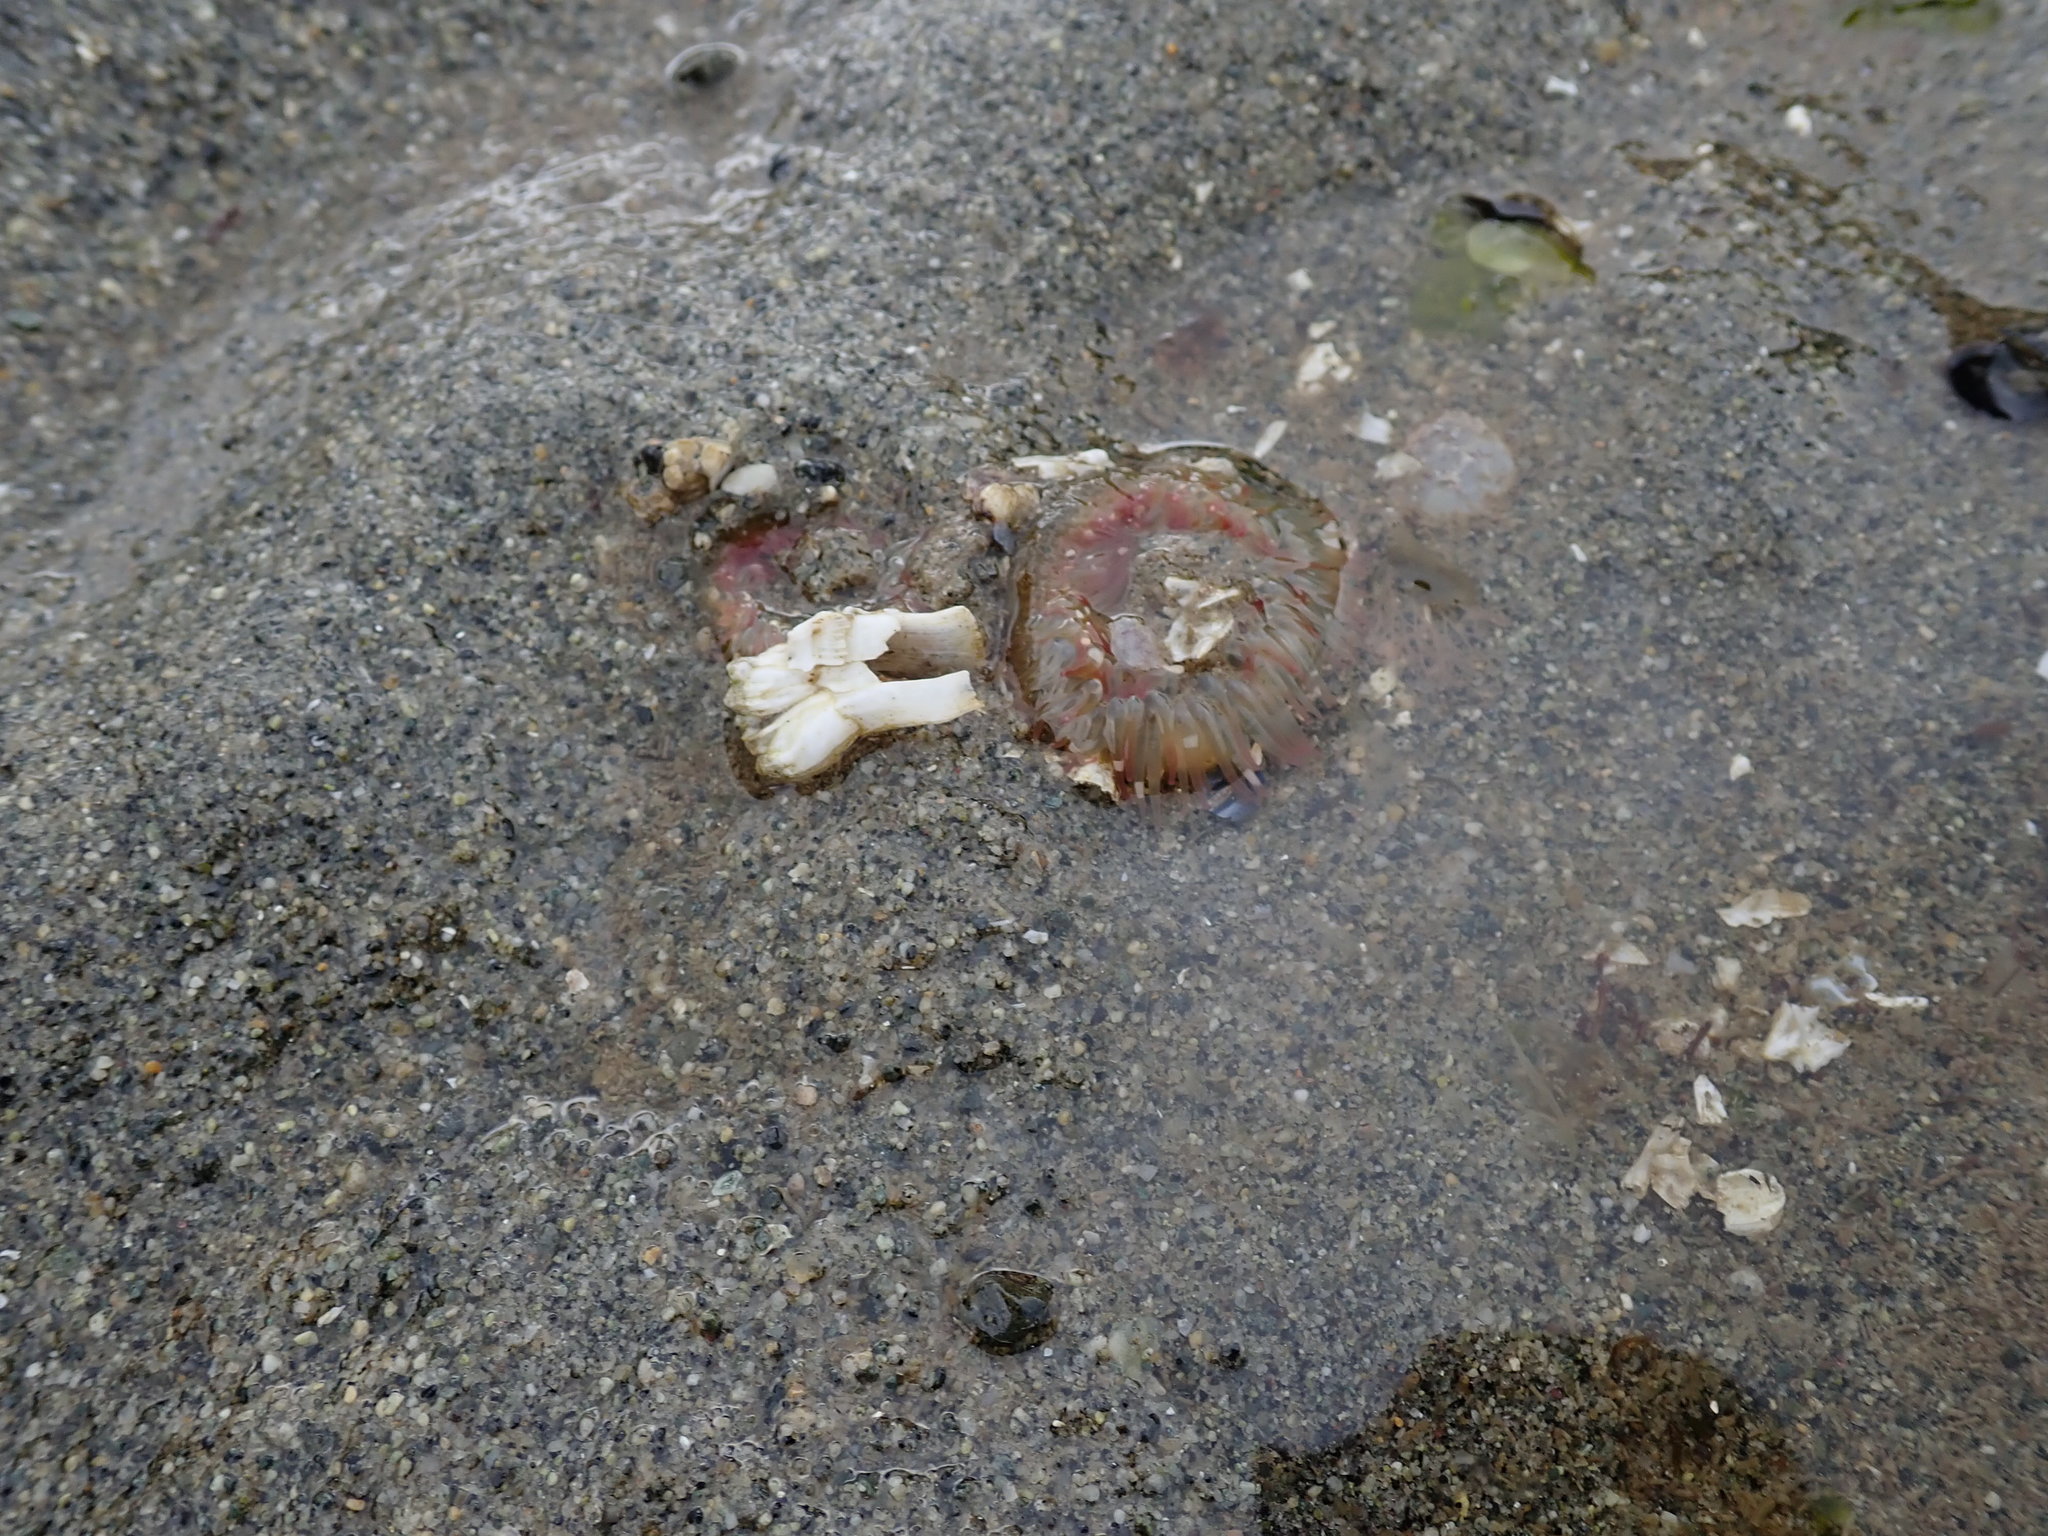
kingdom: Animalia
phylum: Cnidaria
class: Anthozoa
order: Actiniaria
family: Actiniidae
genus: Anthopleura
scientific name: Anthopleura elegantissima
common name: Clonal anemone
